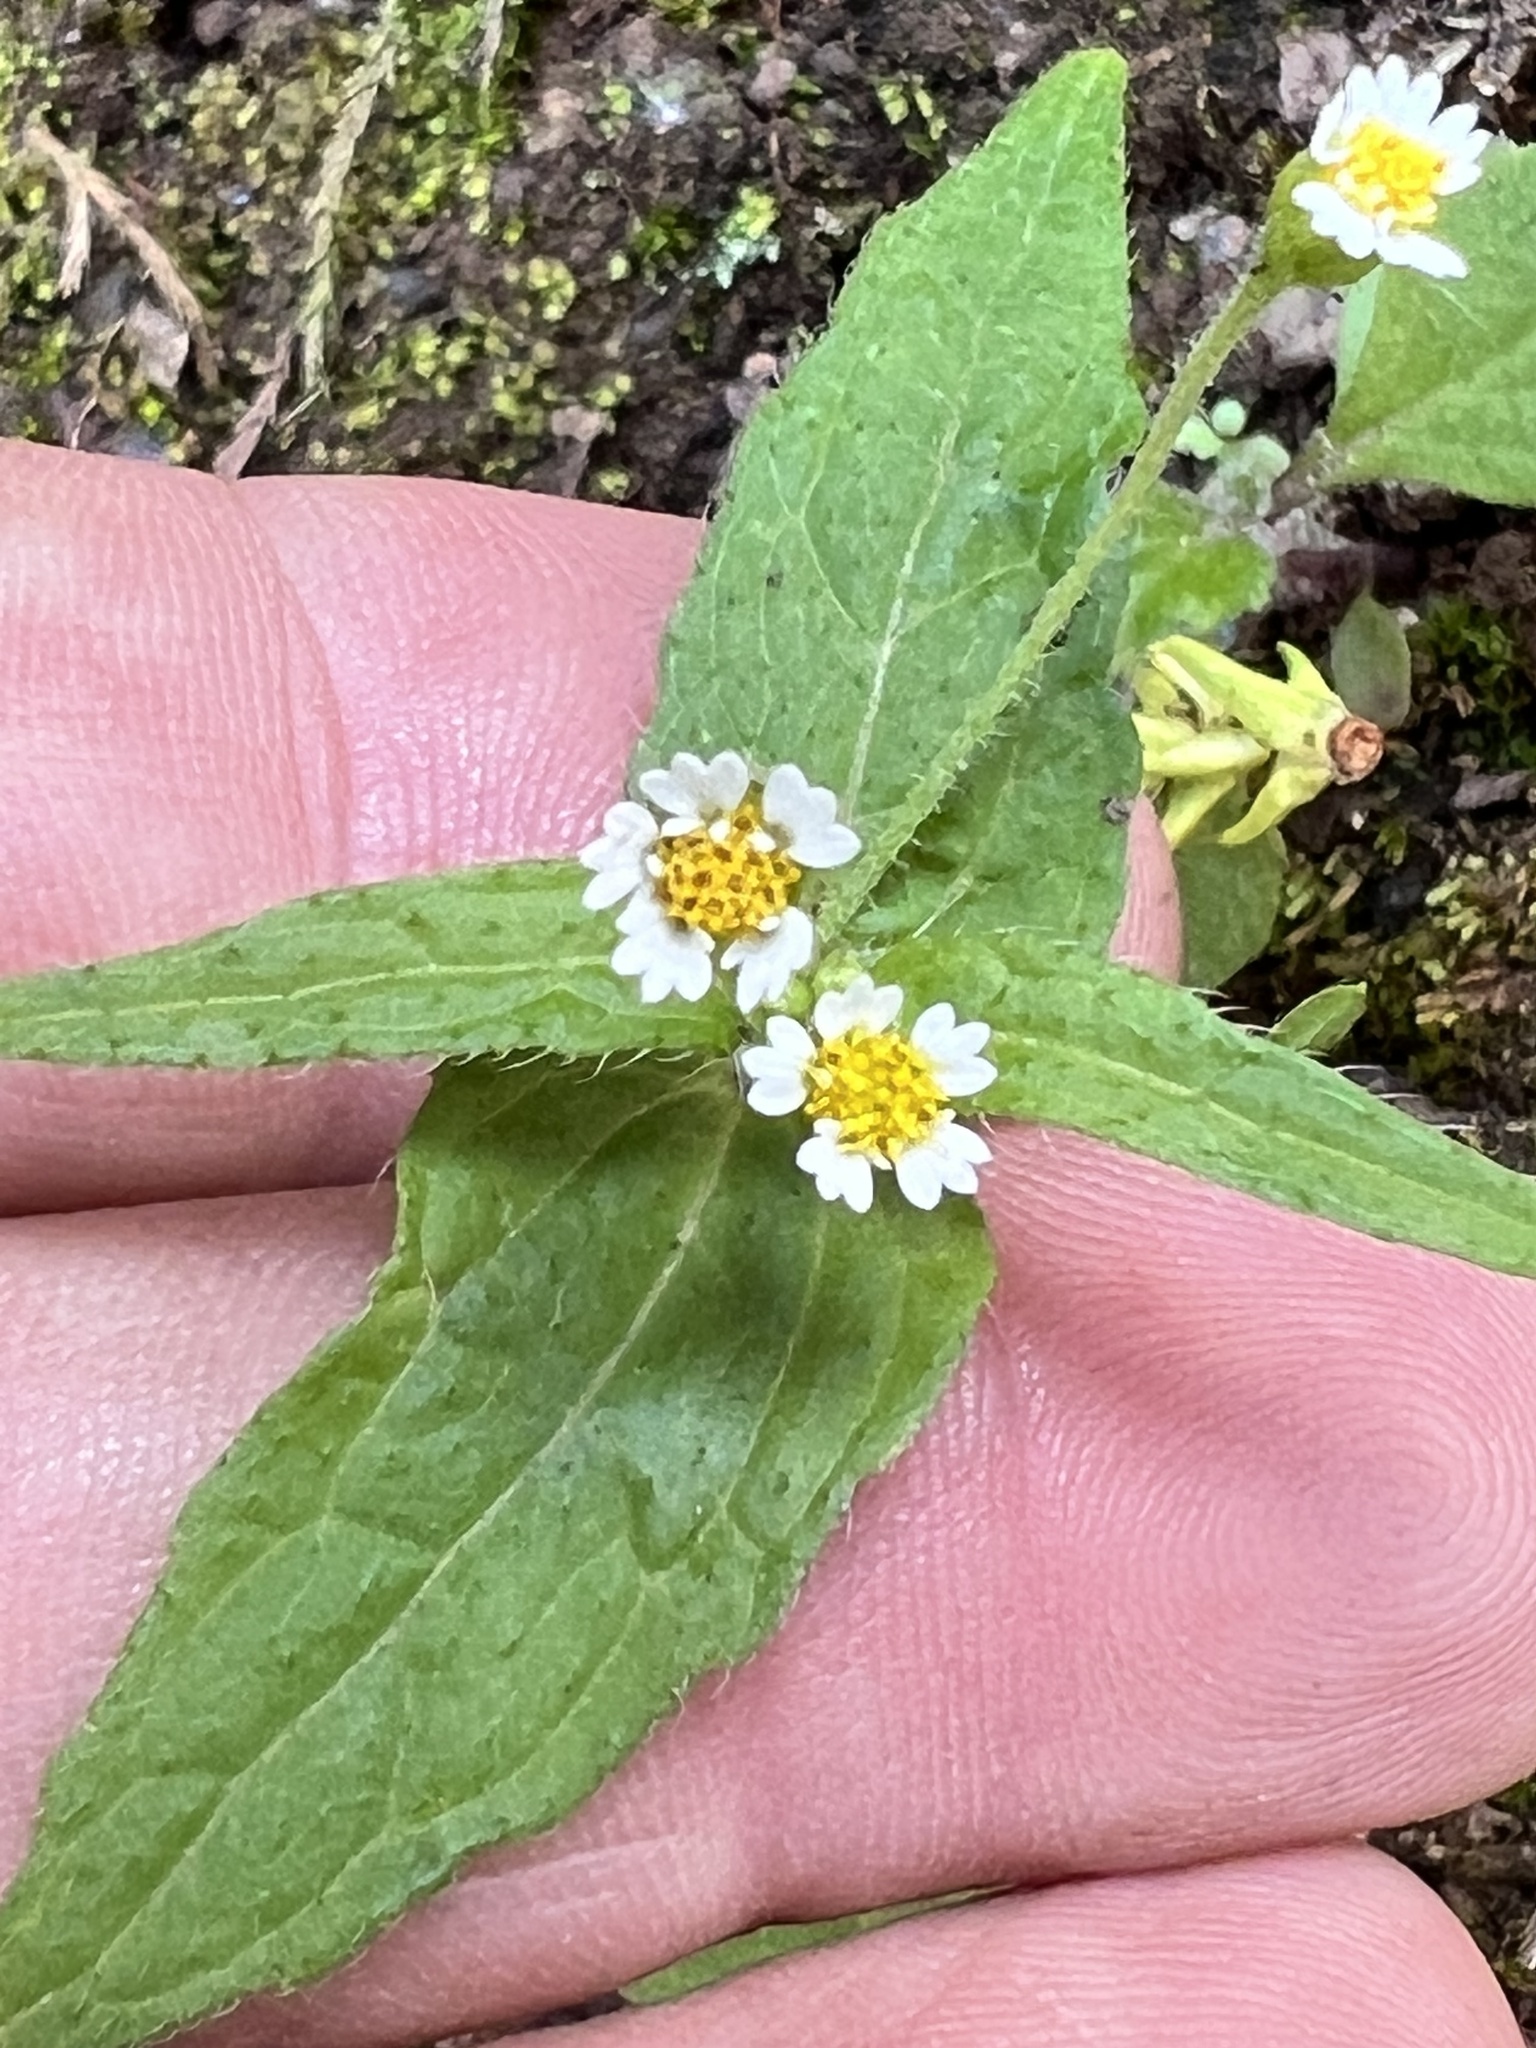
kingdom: Plantae
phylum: Tracheophyta
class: Magnoliopsida
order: Asterales
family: Asteraceae
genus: Galinsoga
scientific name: Galinsoga quadriradiata
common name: Shaggy soldier
